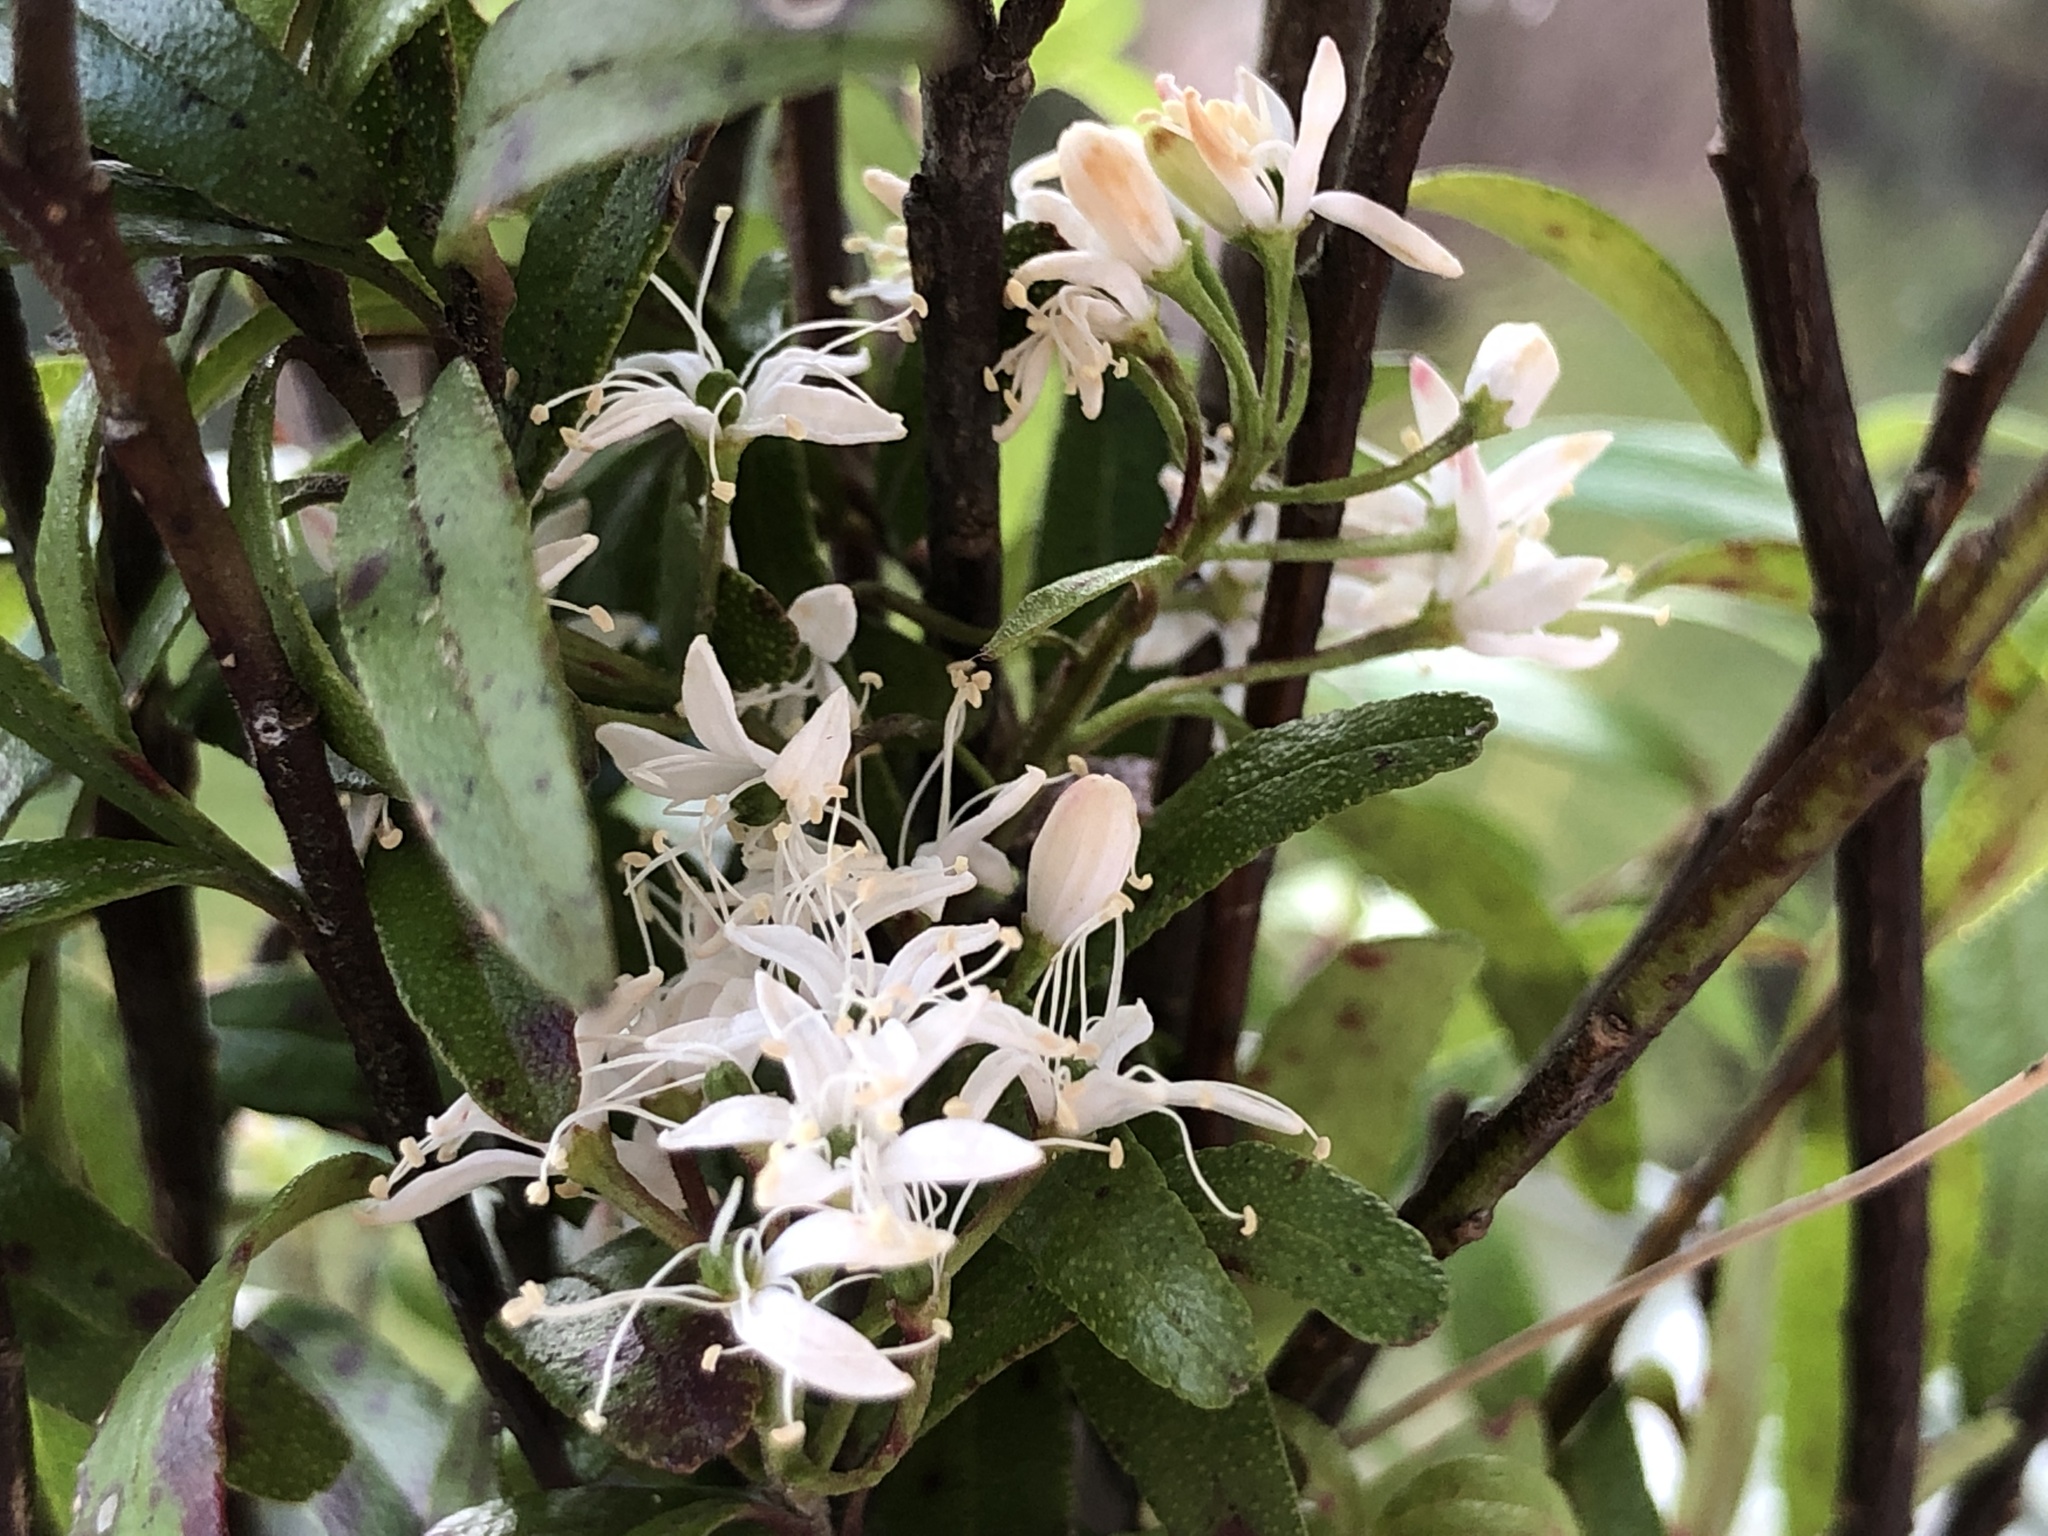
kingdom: Plantae
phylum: Tracheophyta
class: Magnoliopsida
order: Sapindales
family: Rutaceae
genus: Leionema
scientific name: Leionema nudum
